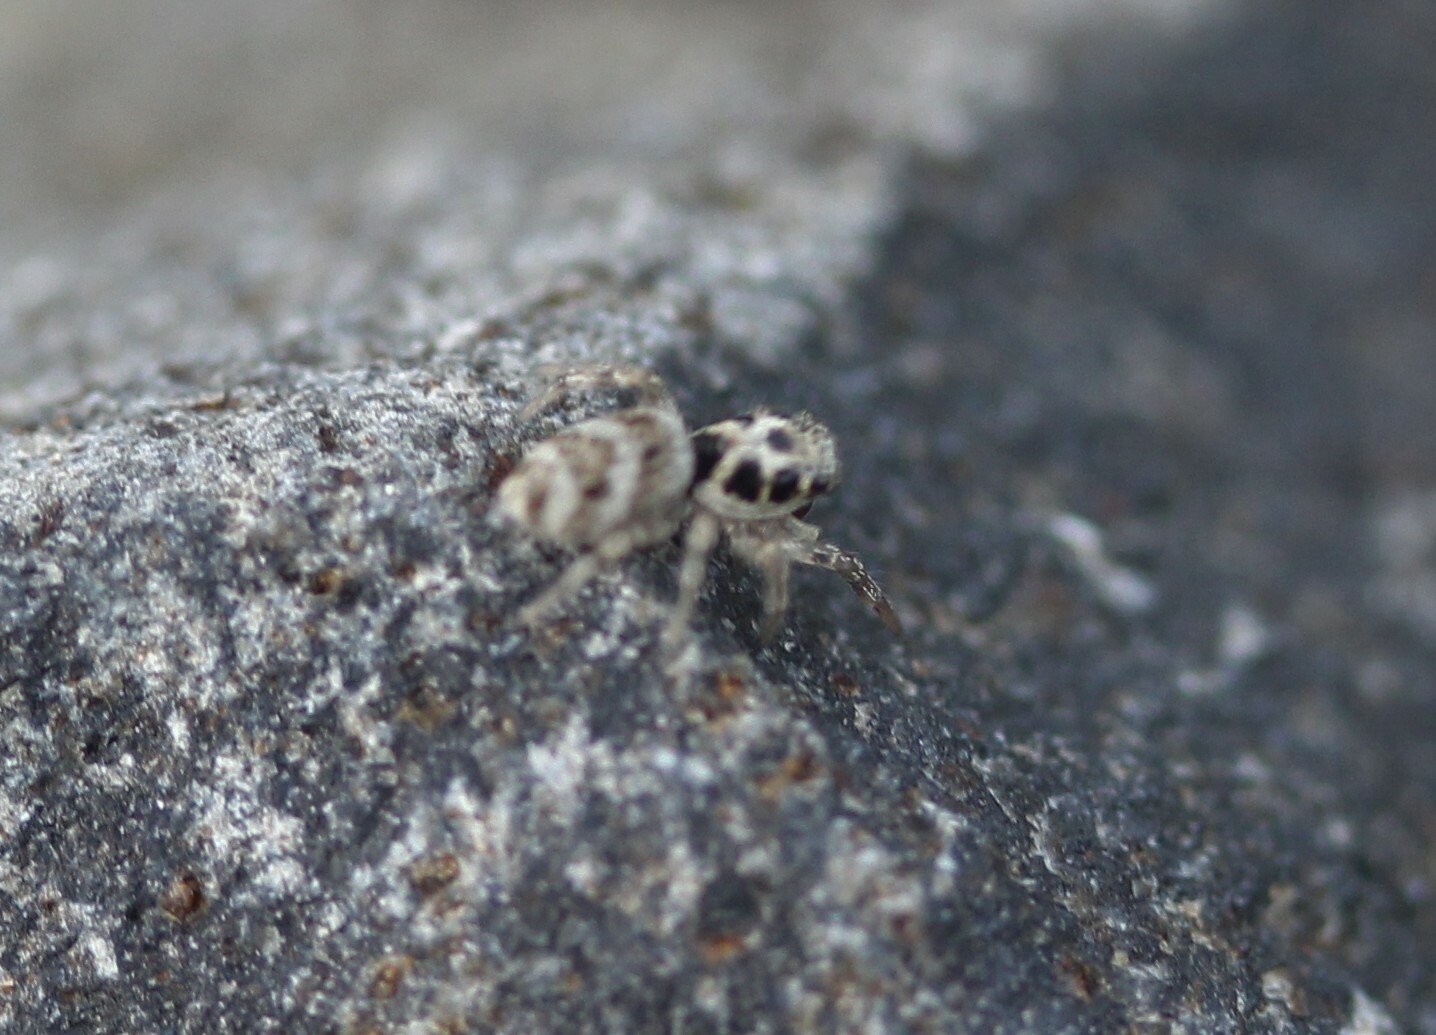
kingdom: Animalia
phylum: Arthropoda
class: Arachnida
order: Araneae
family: Salticidae
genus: Salticus
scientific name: Salticus scenicus
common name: Zebra jumper
